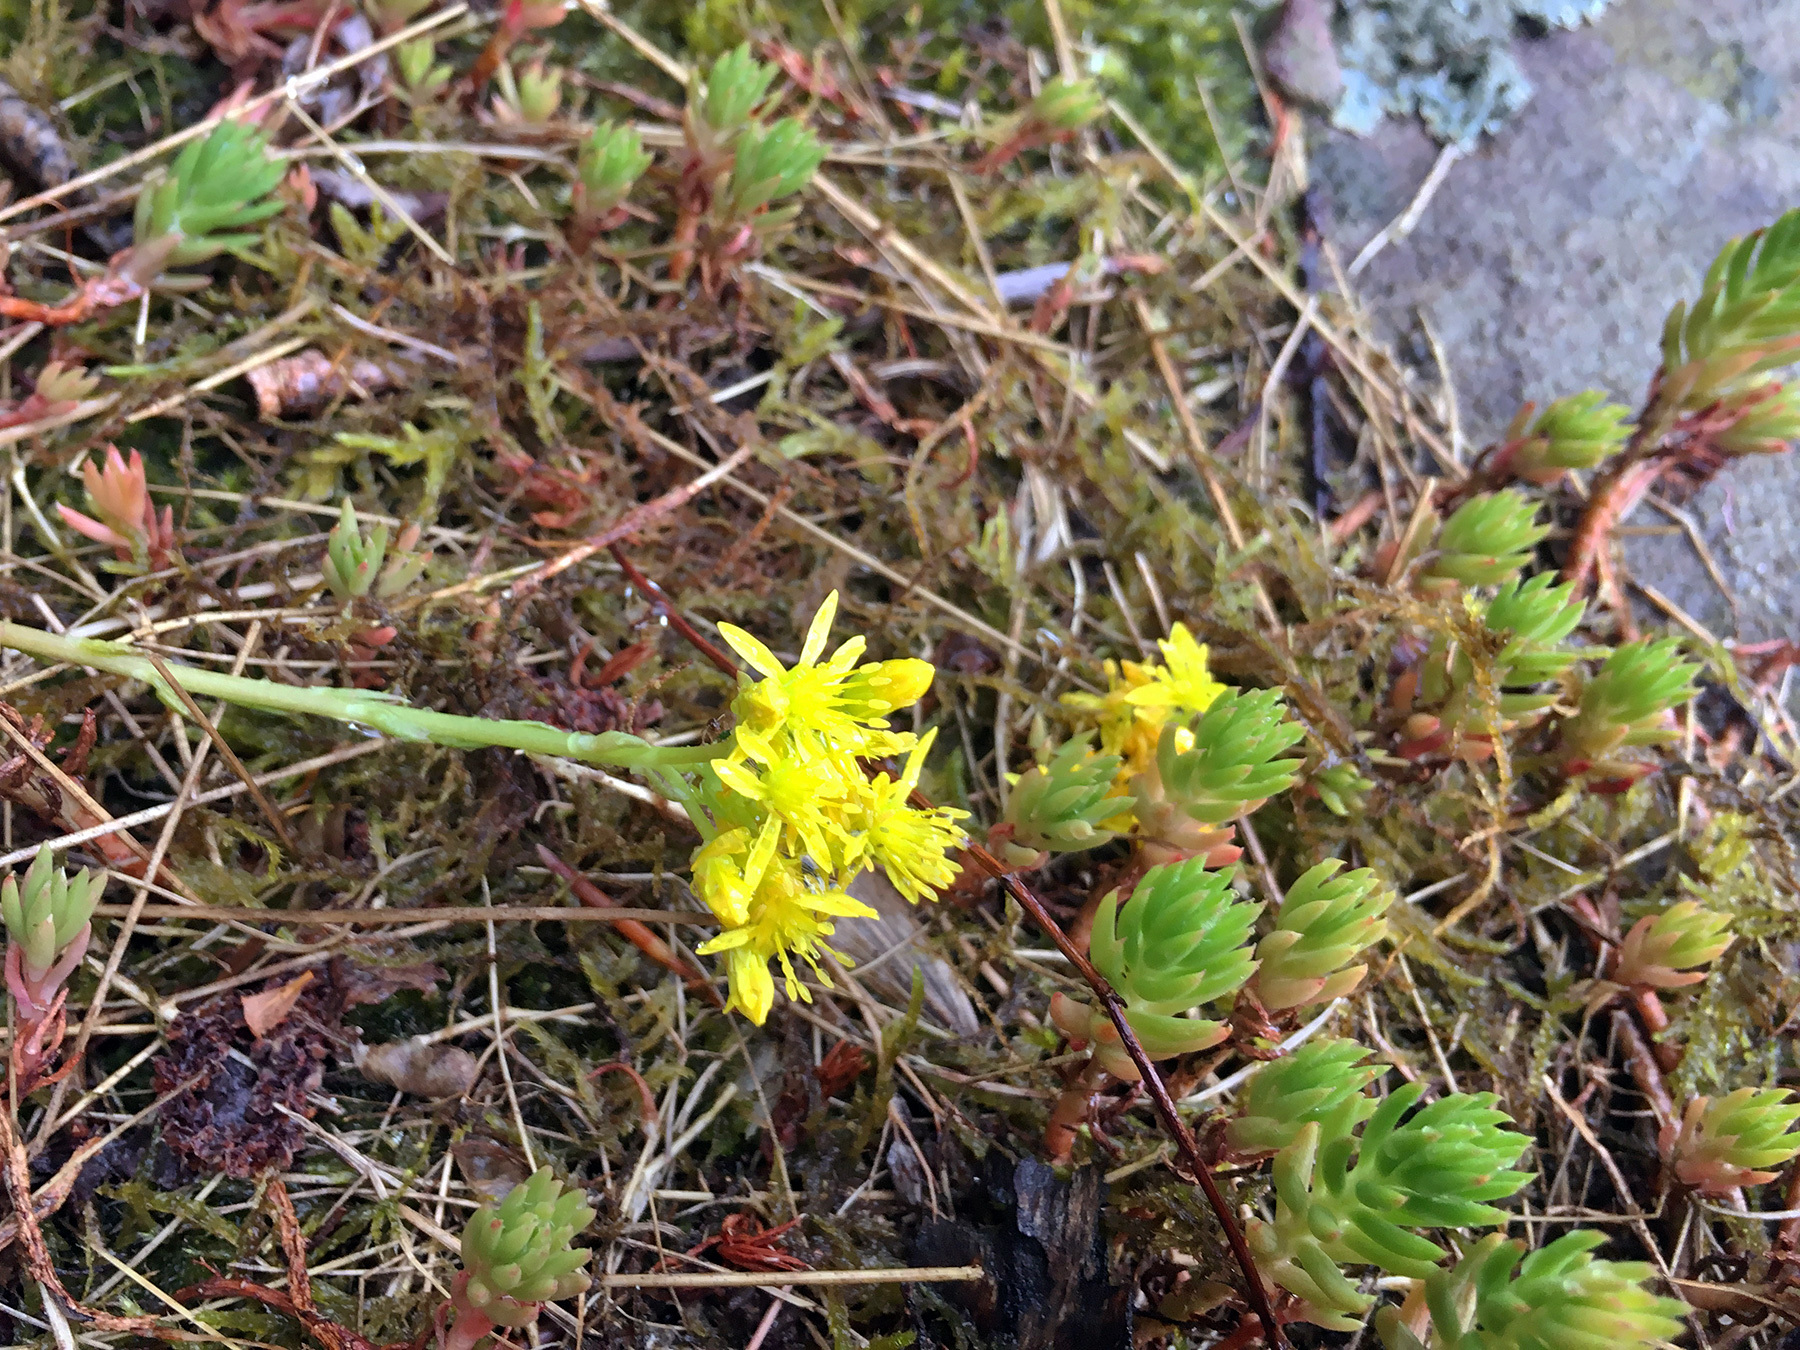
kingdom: Plantae
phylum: Tracheophyta
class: Magnoliopsida
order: Saxifragales
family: Crassulaceae
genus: Petrosedum
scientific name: Petrosedum rupestre
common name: Jenny's stonecrop
